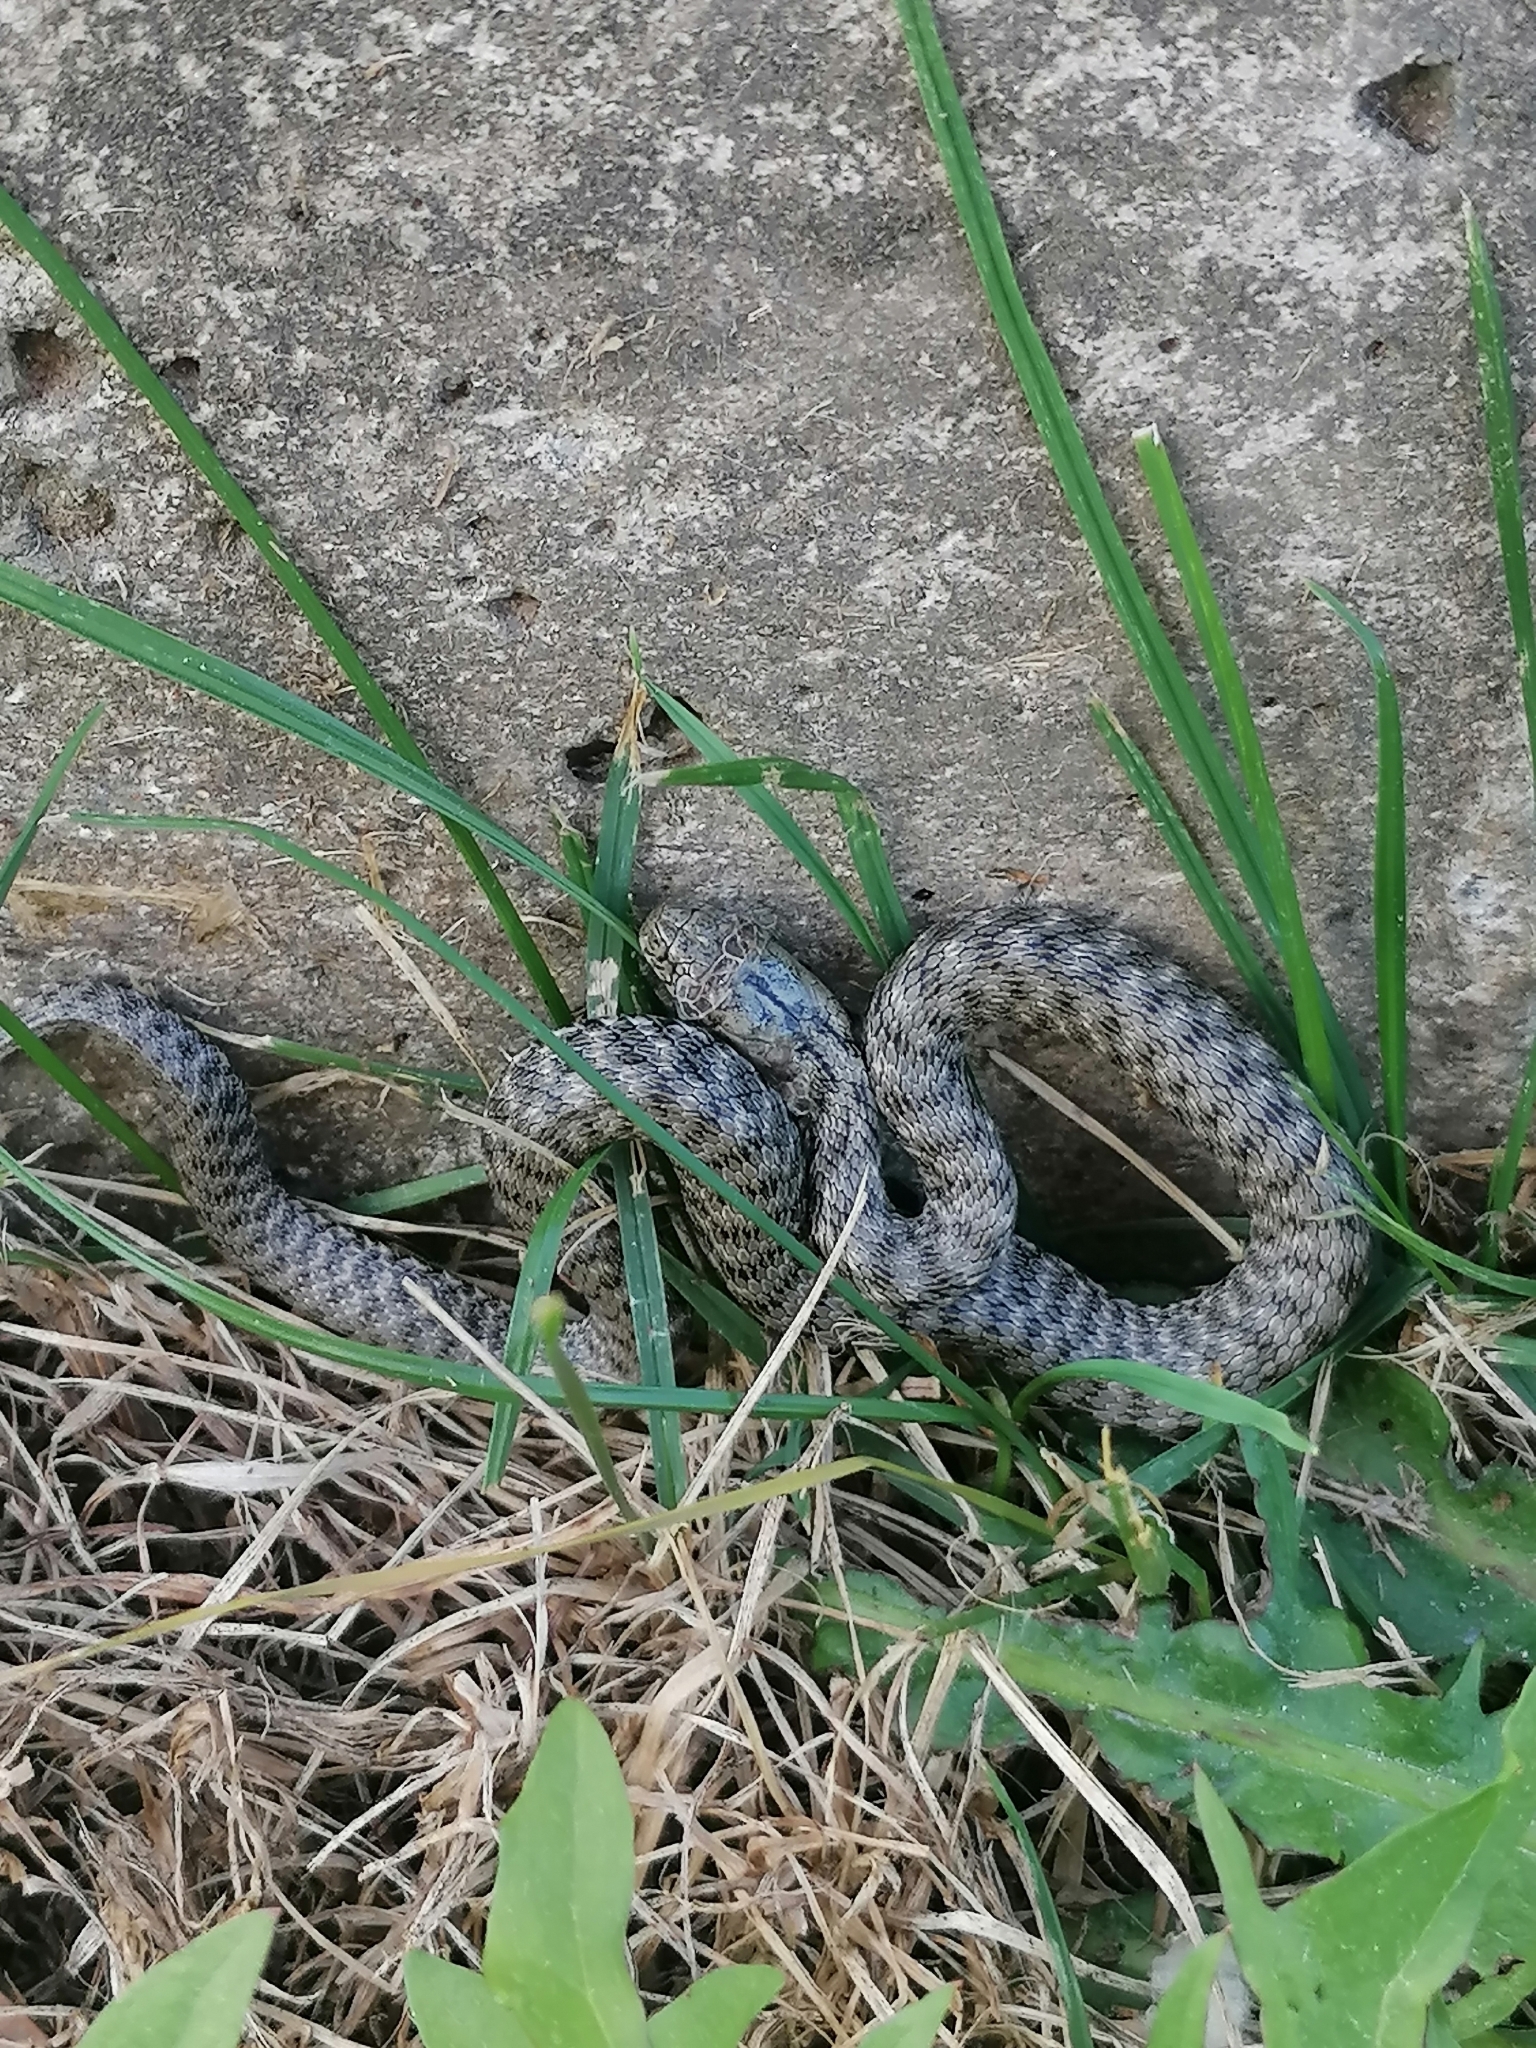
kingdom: Animalia
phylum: Chordata
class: Squamata
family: Colubridae
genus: Natrix
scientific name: Natrix tessellata
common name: Dice snake
